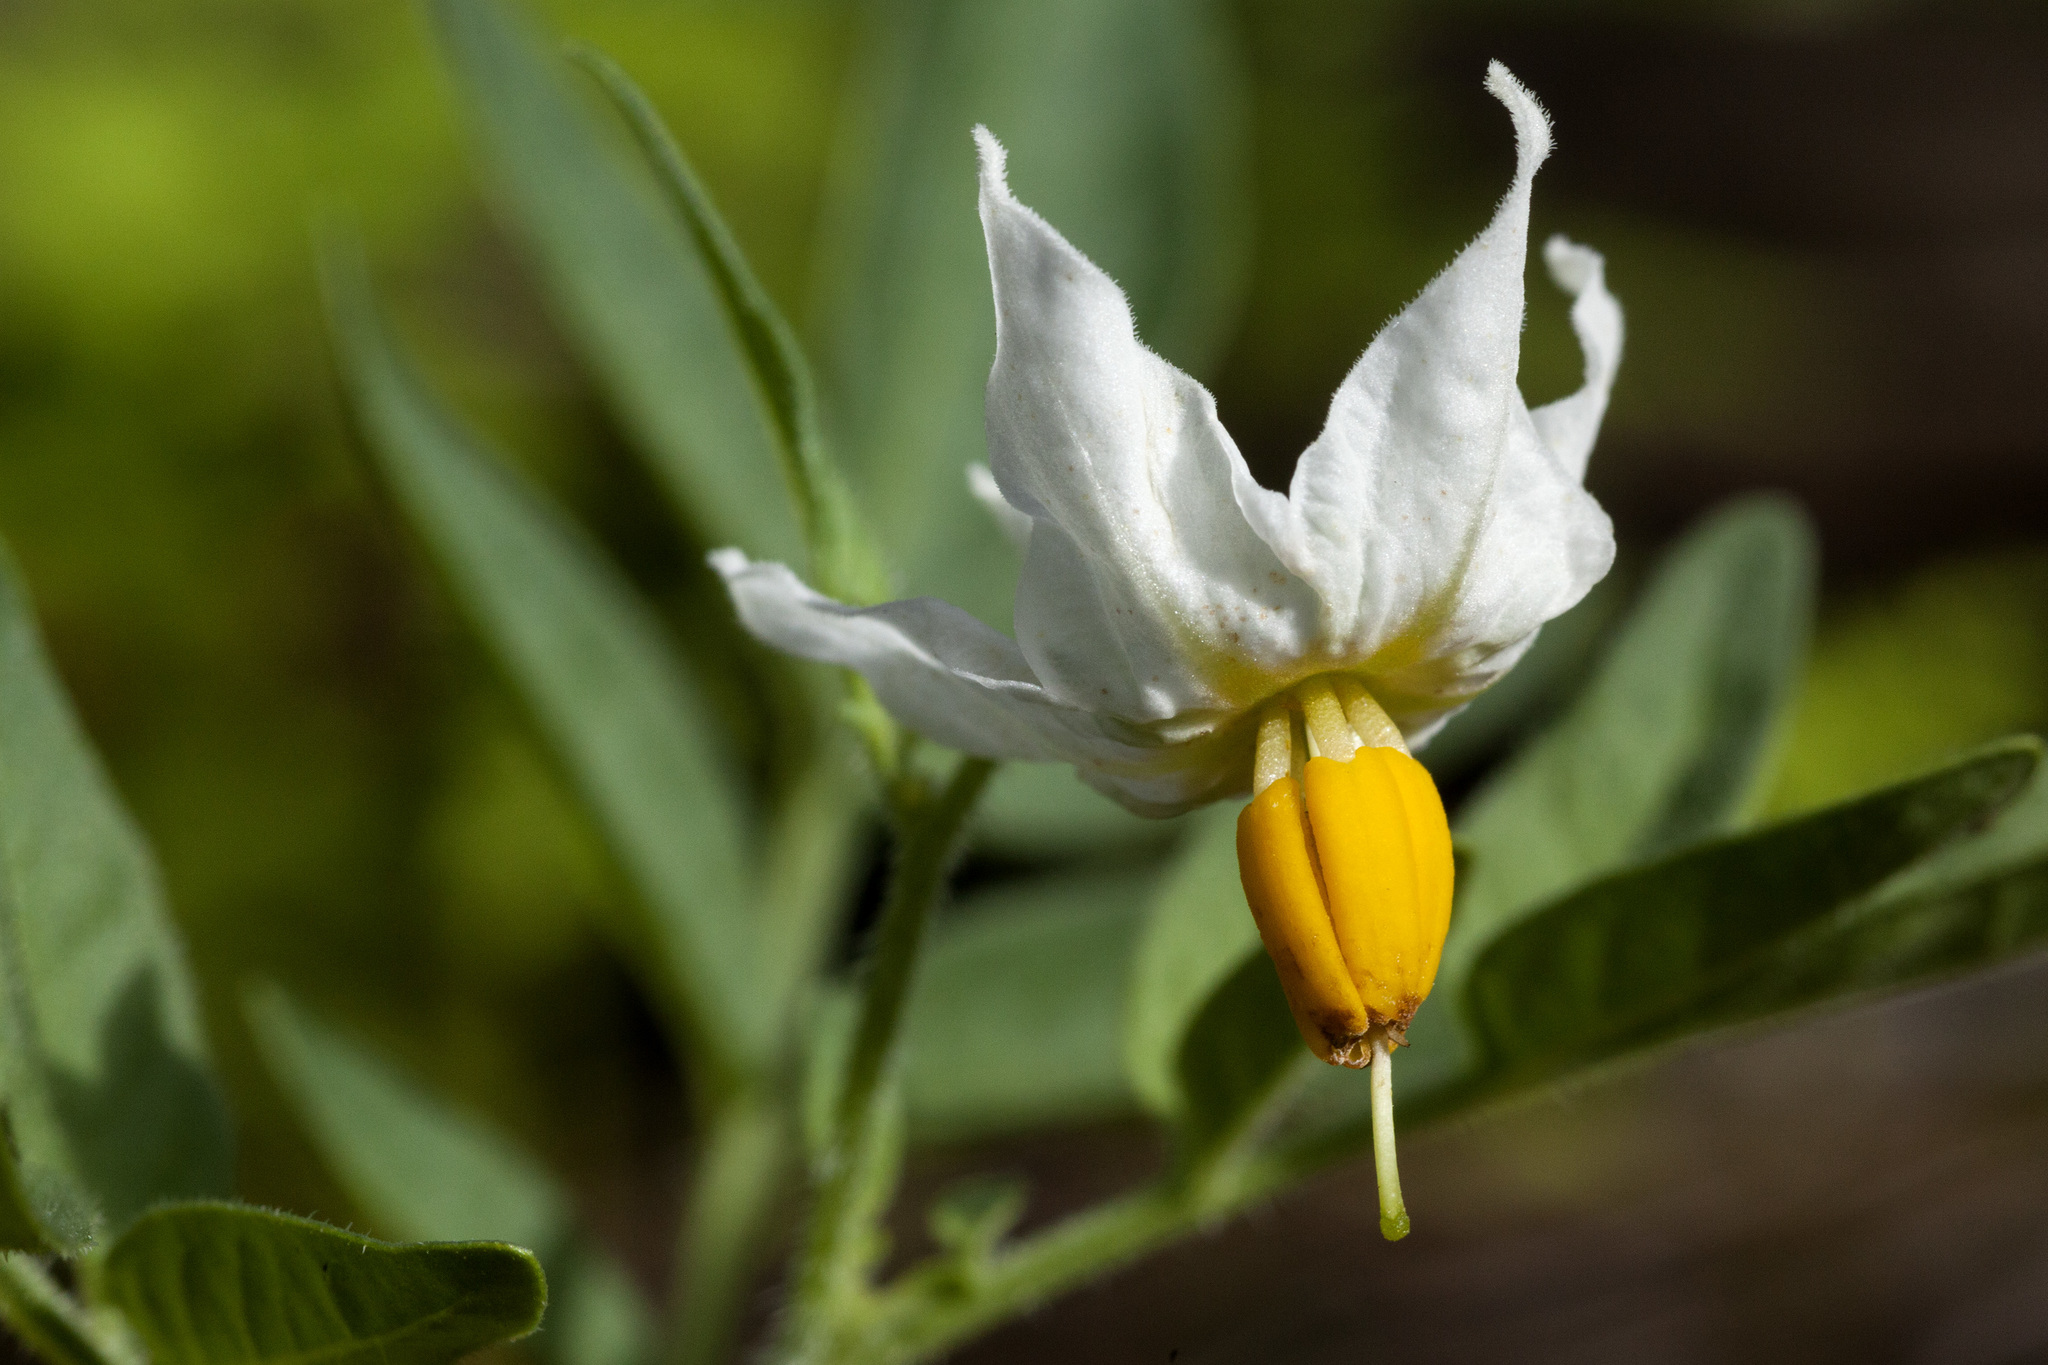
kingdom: Plantae
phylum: Tracheophyta
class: Magnoliopsida
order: Solanales
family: Solanaceae
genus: Solanum
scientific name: Solanum jamesii
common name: Wild potato
